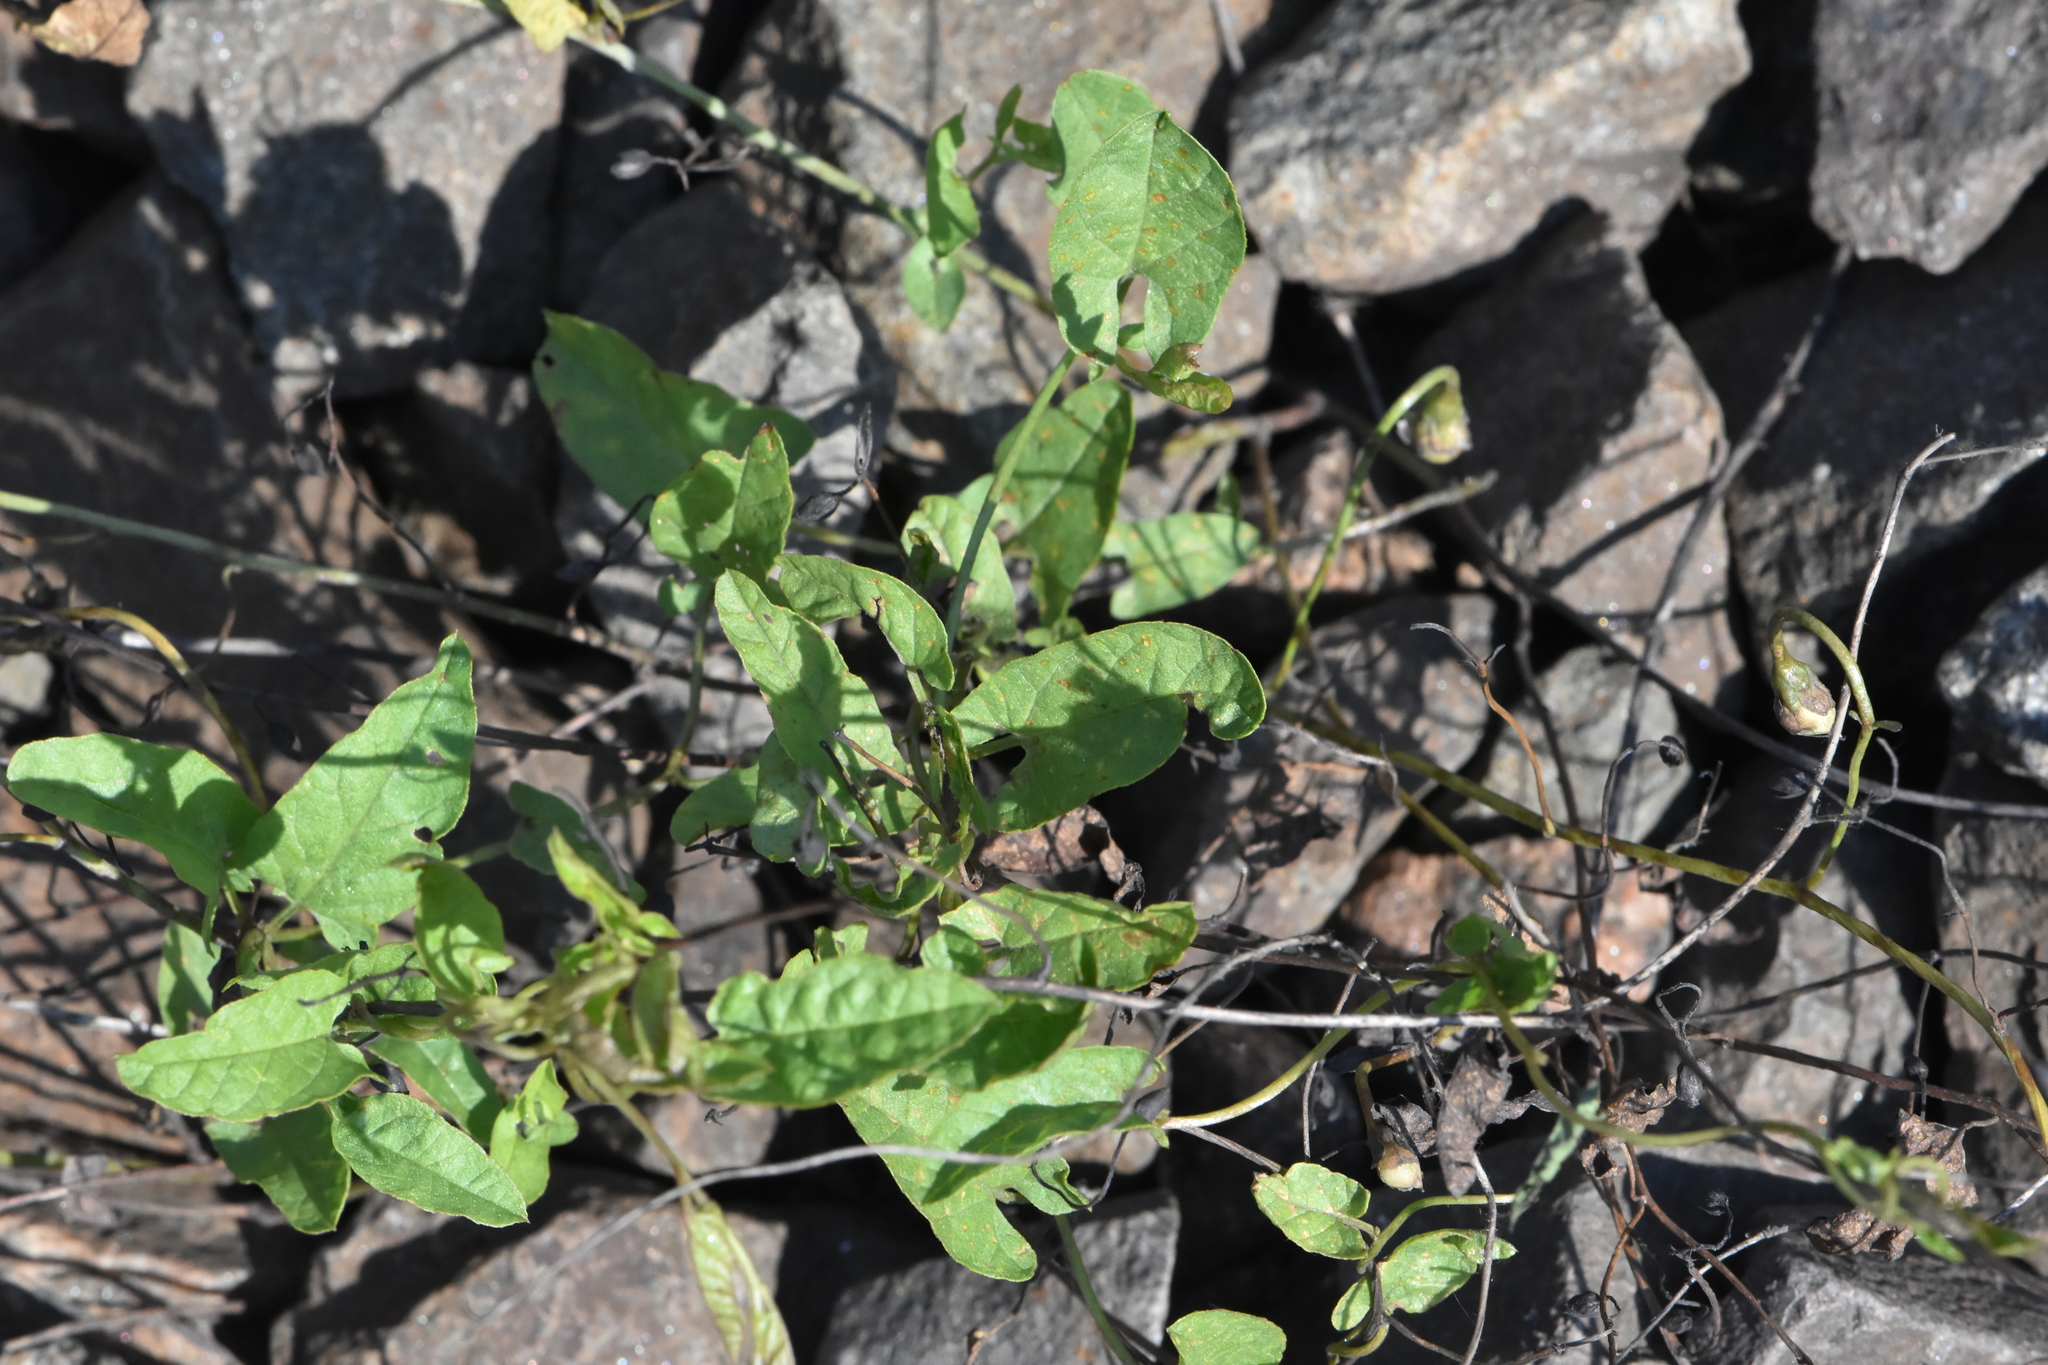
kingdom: Plantae
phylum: Tracheophyta
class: Magnoliopsida
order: Solanales
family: Convolvulaceae
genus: Convolvulus
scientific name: Convolvulus arvensis
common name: Field bindweed
